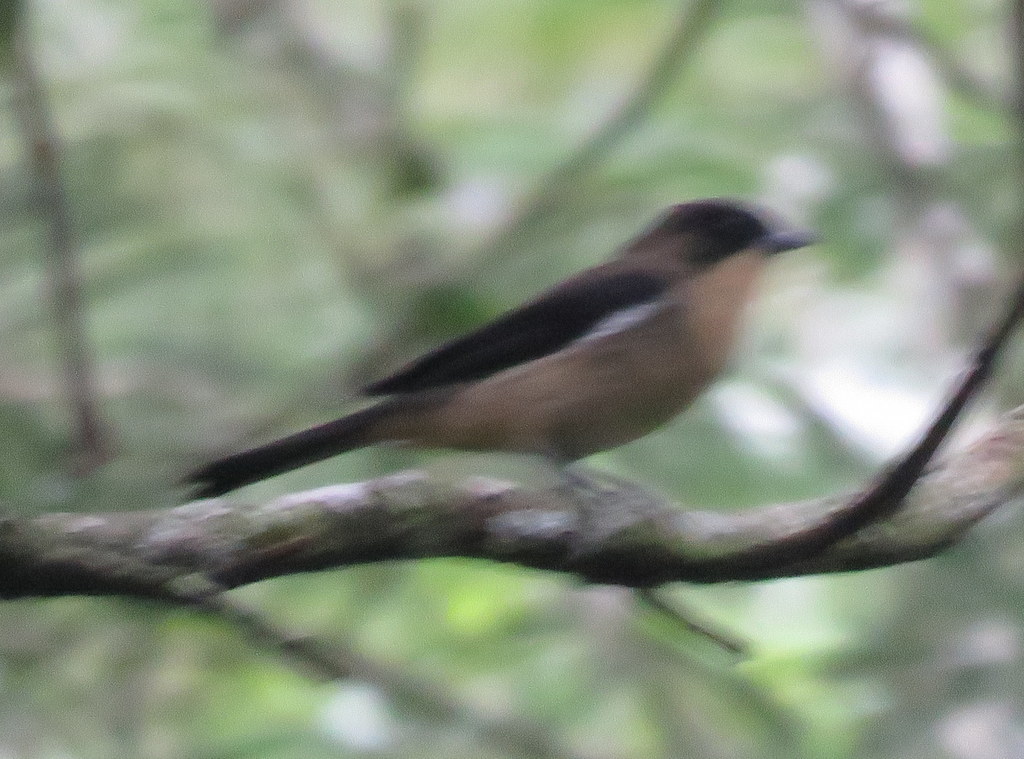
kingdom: Animalia
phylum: Chordata
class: Aves
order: Passeriformes
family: Thraupidae
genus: Trichothraupis
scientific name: Trichothraupis melanops
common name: Black-goggled tanager
